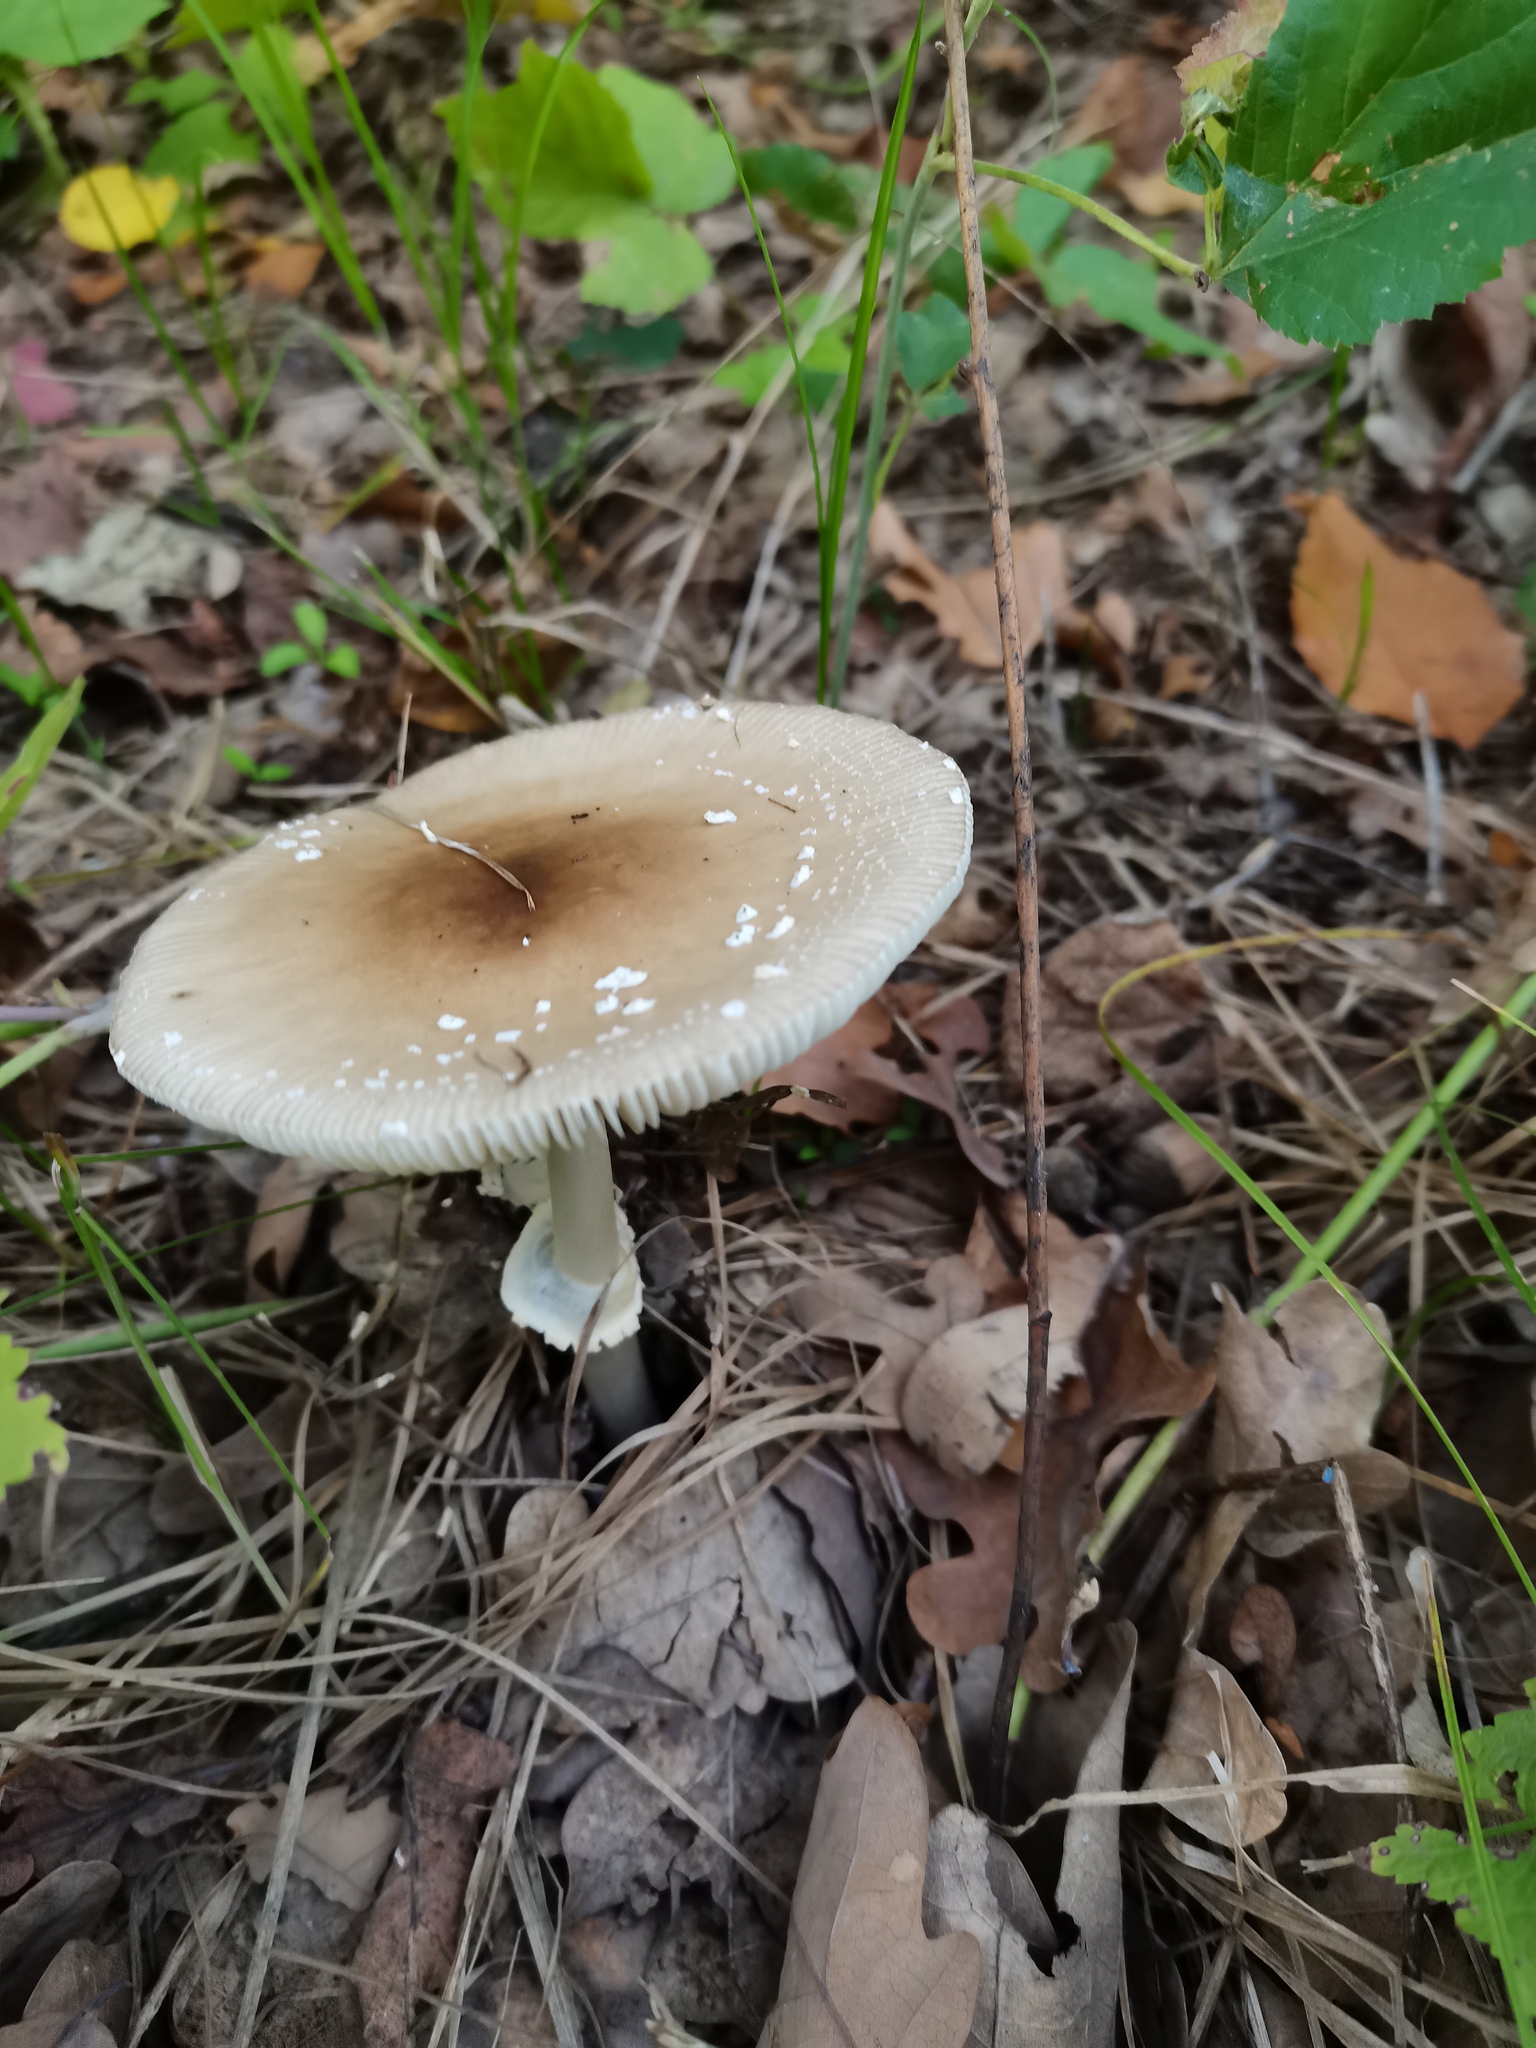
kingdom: Fungi
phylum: Basidiomycota
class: Agaricomycetes
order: Agaricales
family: Amanitaceae
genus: Amanita
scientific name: Amanita pantherina
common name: Panthercap
